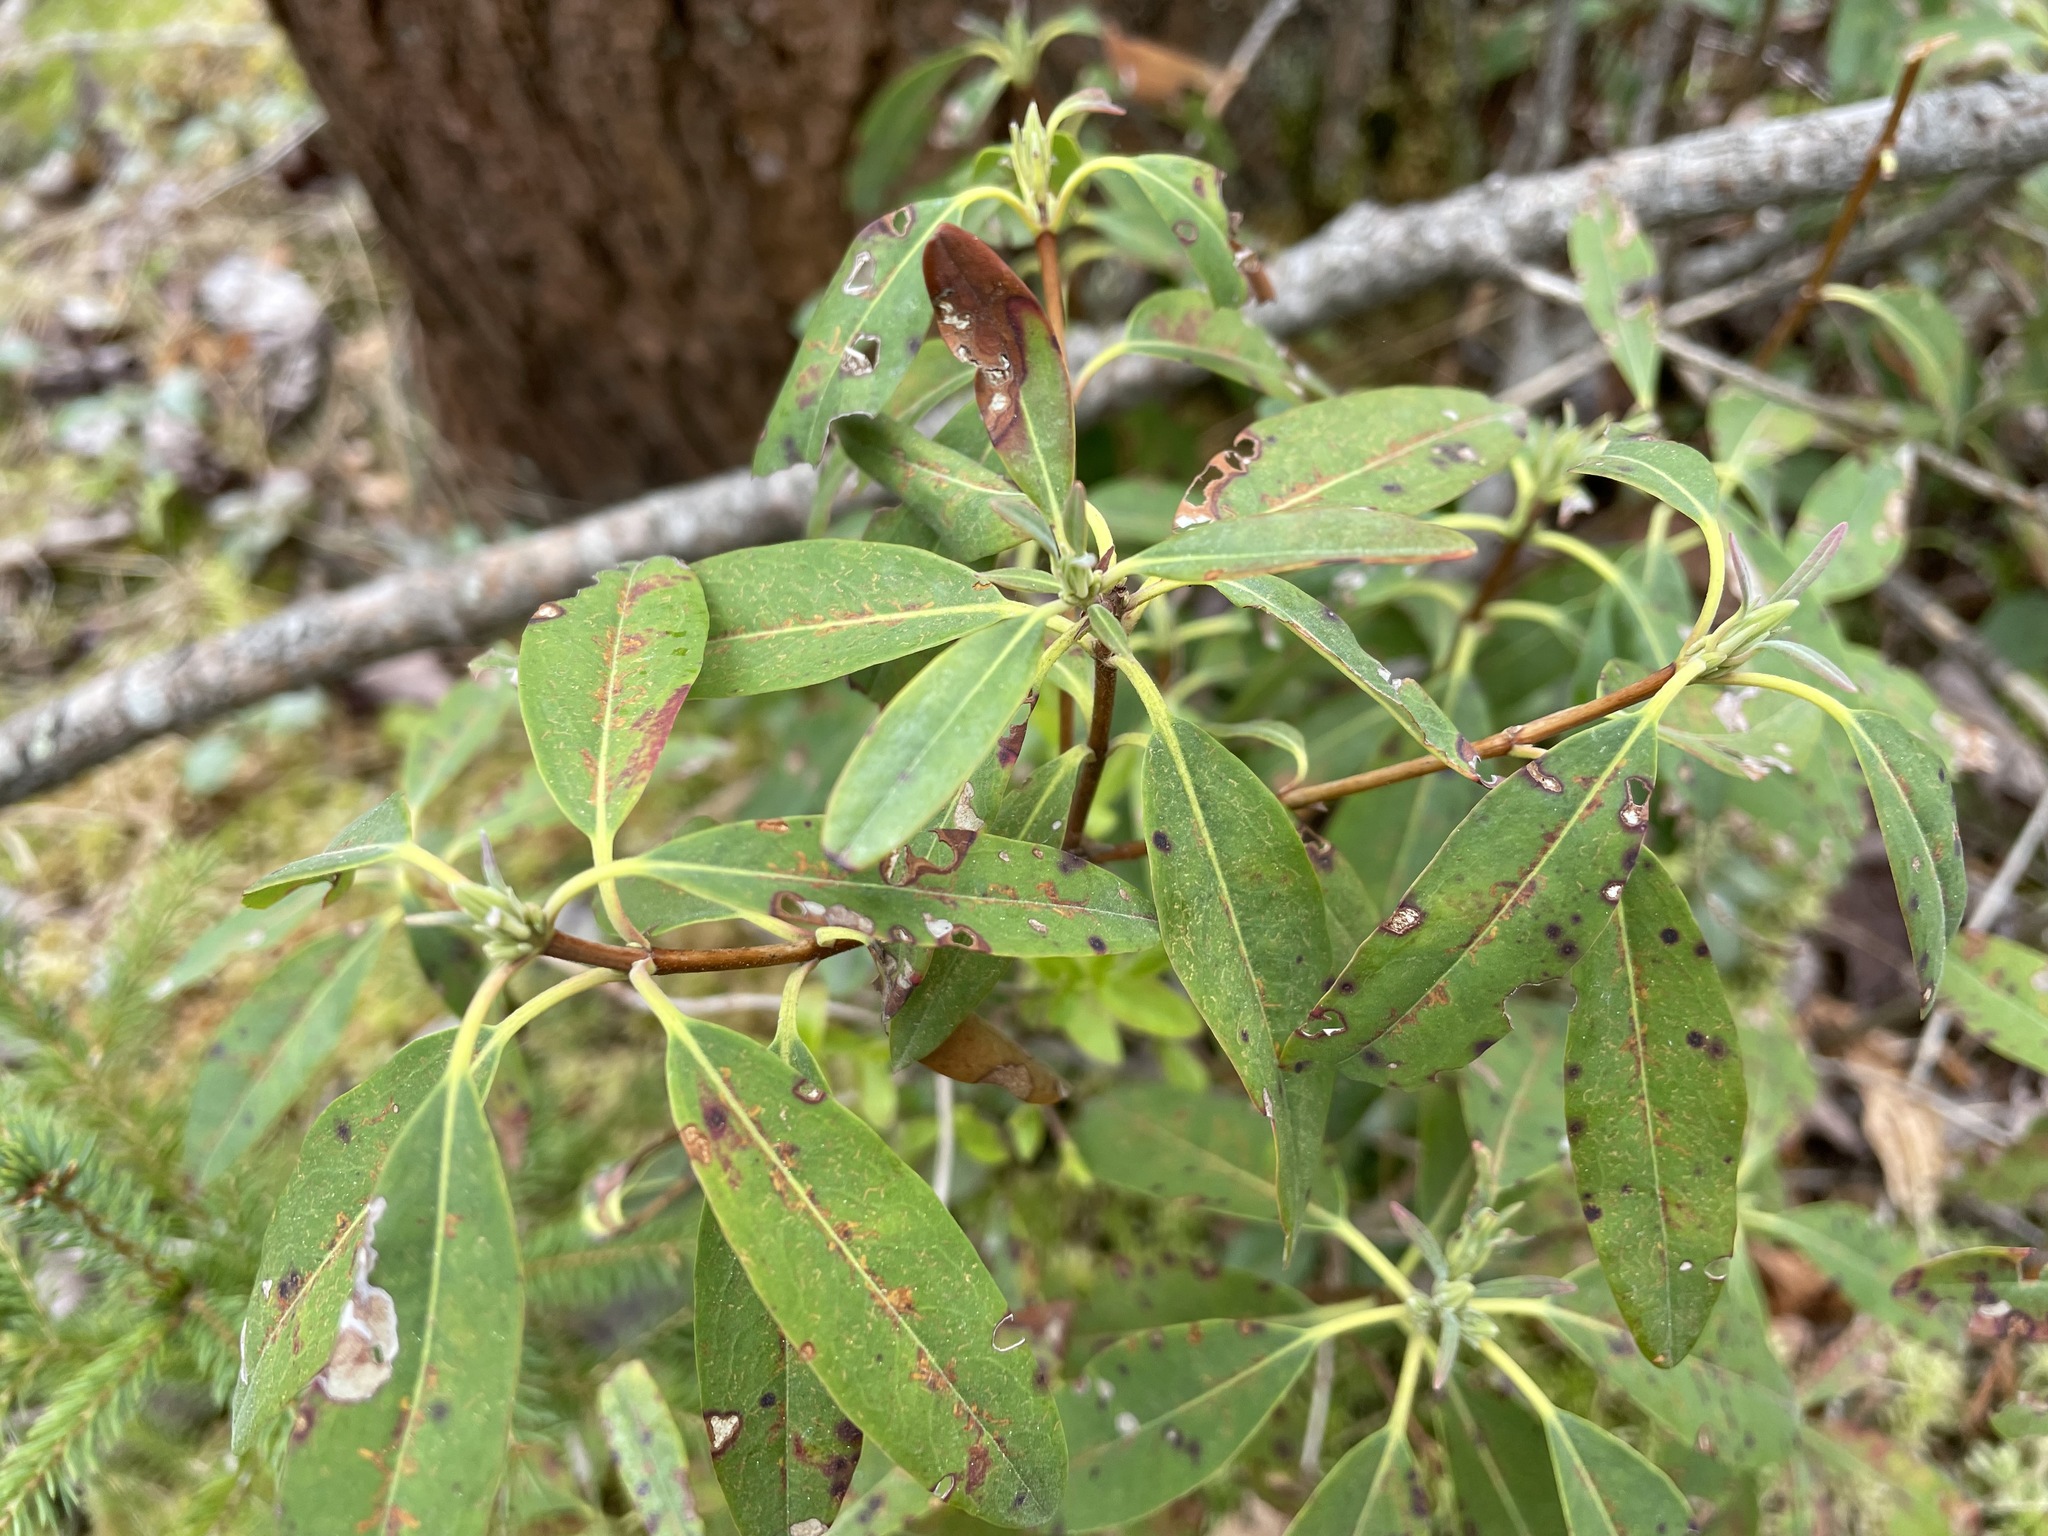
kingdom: Plantae
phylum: Tracheophyta
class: Magnoliopsida
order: Ericales
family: Ericaceae
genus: Kalmia
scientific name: Kalmia angustifolia
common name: Sheep-laurel
